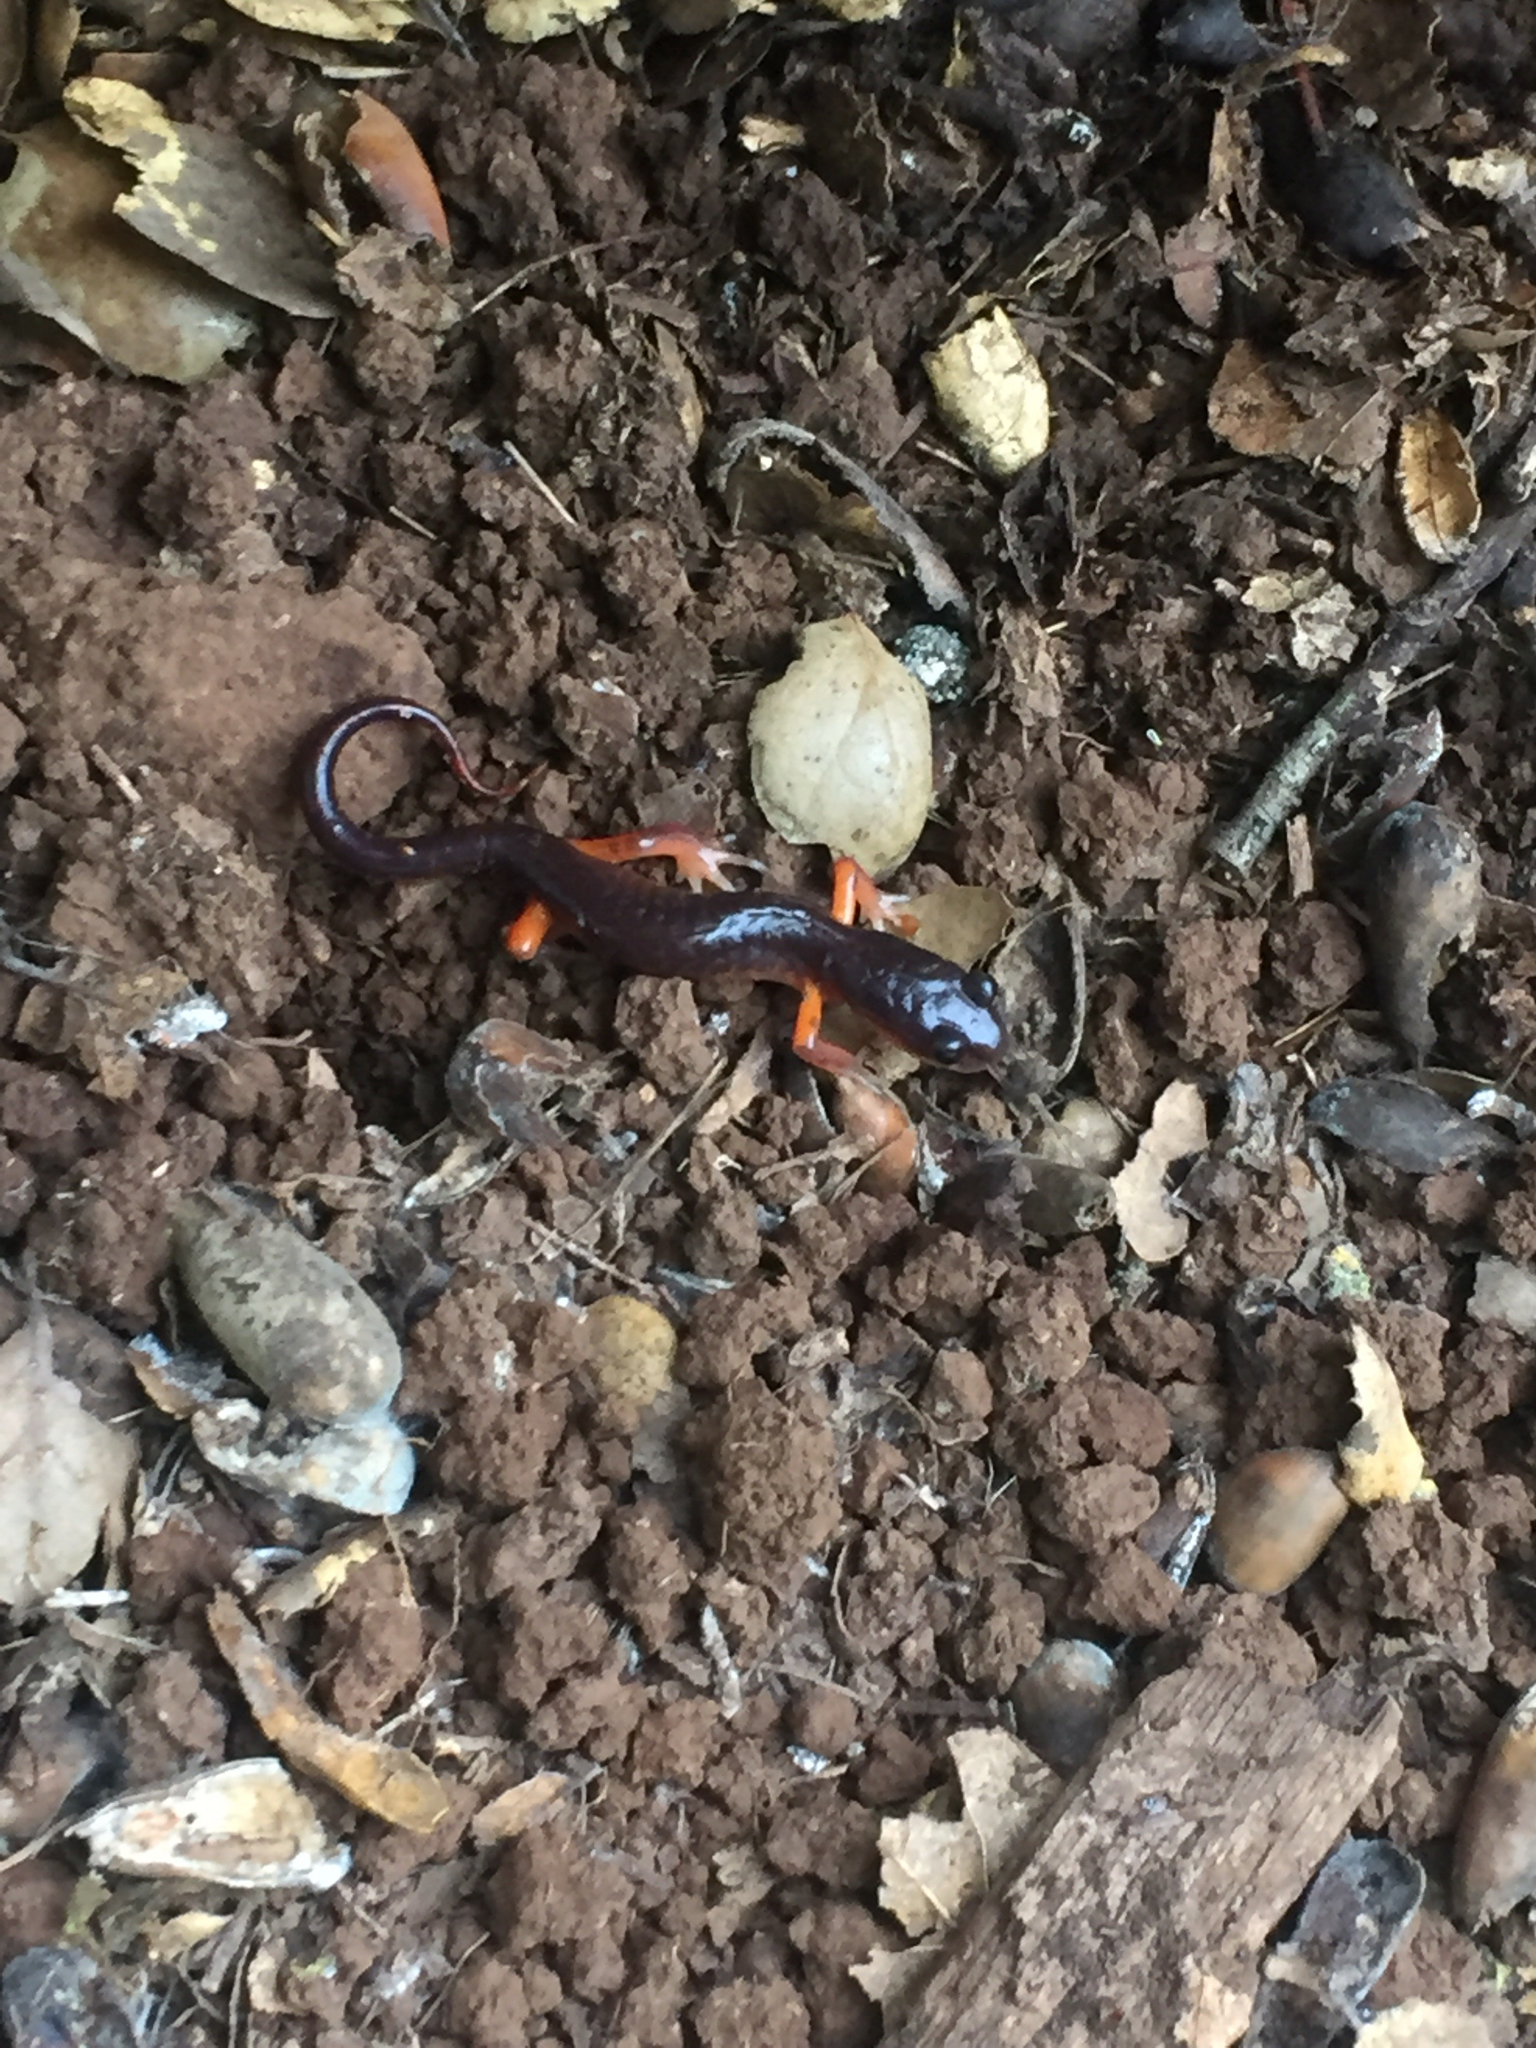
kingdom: Animalia
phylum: Chordata
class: Amphibia
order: Caudata
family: Plethodontidae
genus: Ensatina
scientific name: Ensatina eschscholtzii
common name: Ensatina
